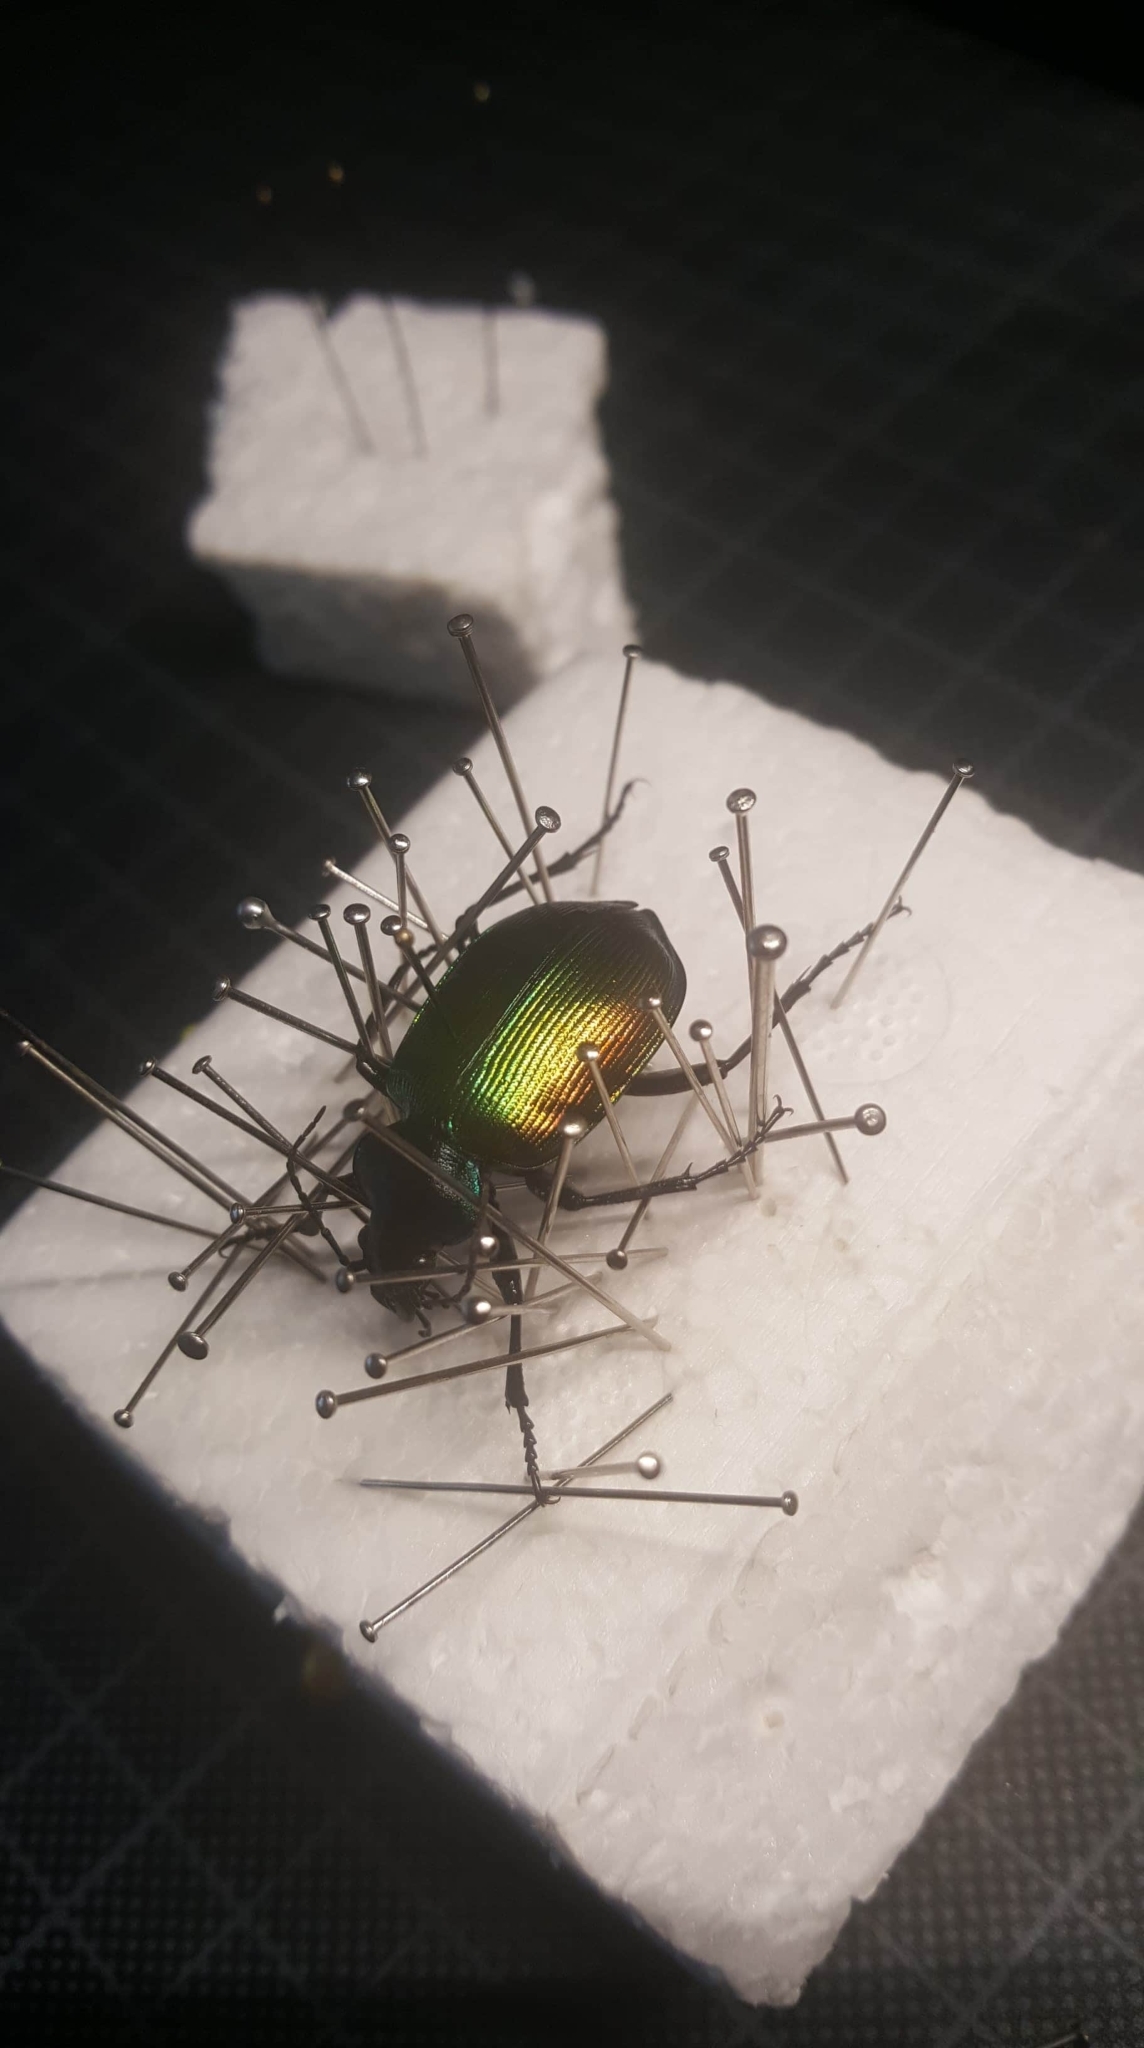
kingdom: Animalia
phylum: Arthropoda
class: Insecta
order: Coleoptera
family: Carabidae
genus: Calosoma
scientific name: Calosoma sycophanta
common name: Forest caterpillar hunter
